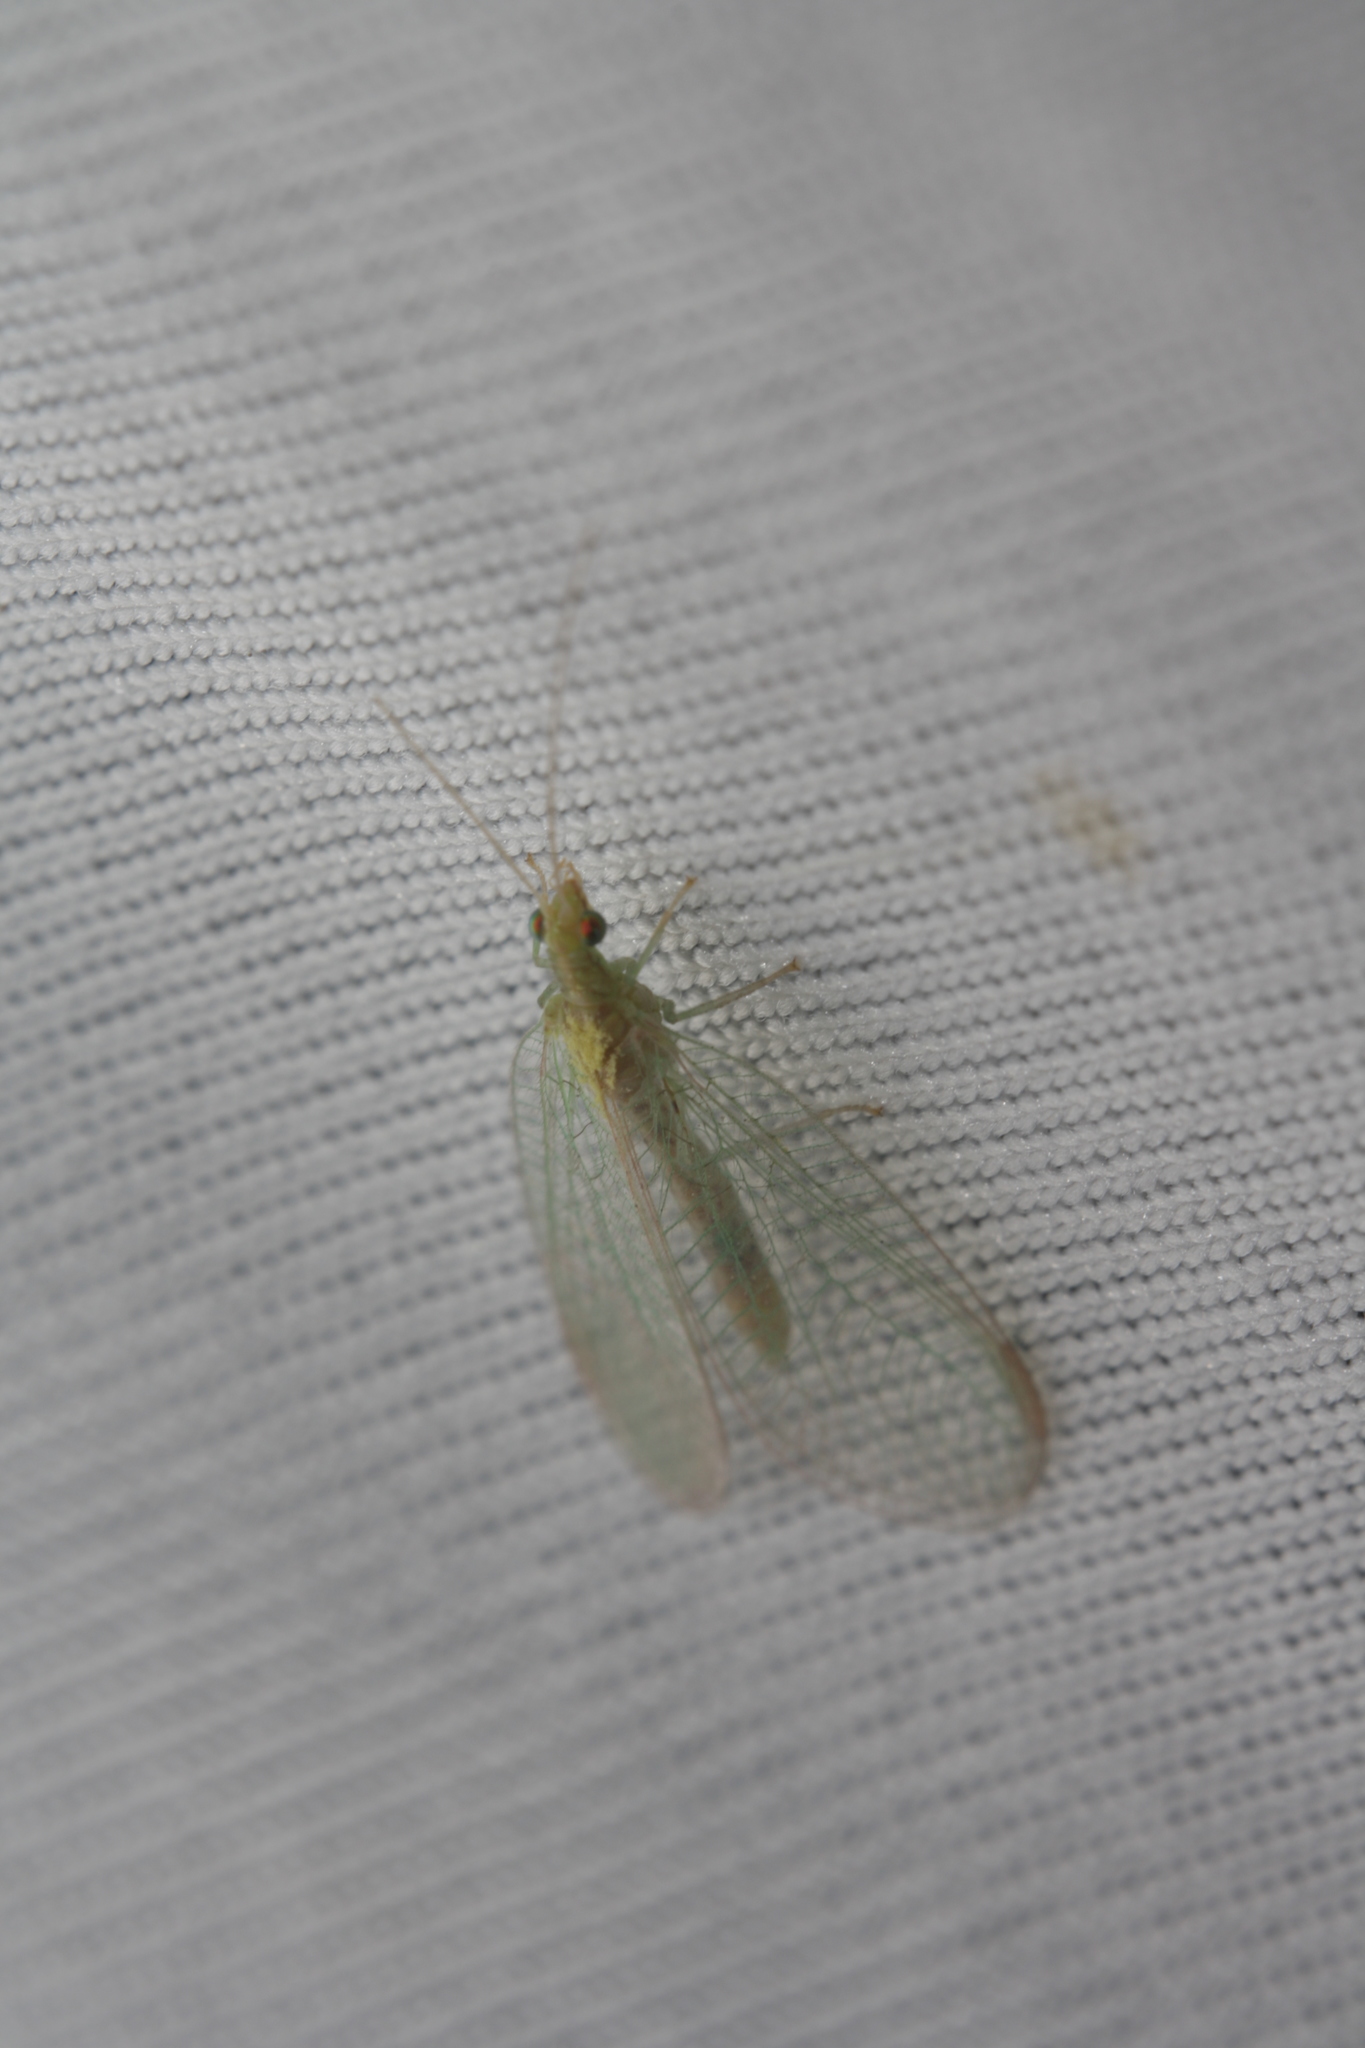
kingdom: Animalia
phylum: Arthropoda
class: Insecta
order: Neuroptera
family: Chrysopidae
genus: Chrysoperla
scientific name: Chrysoperla
